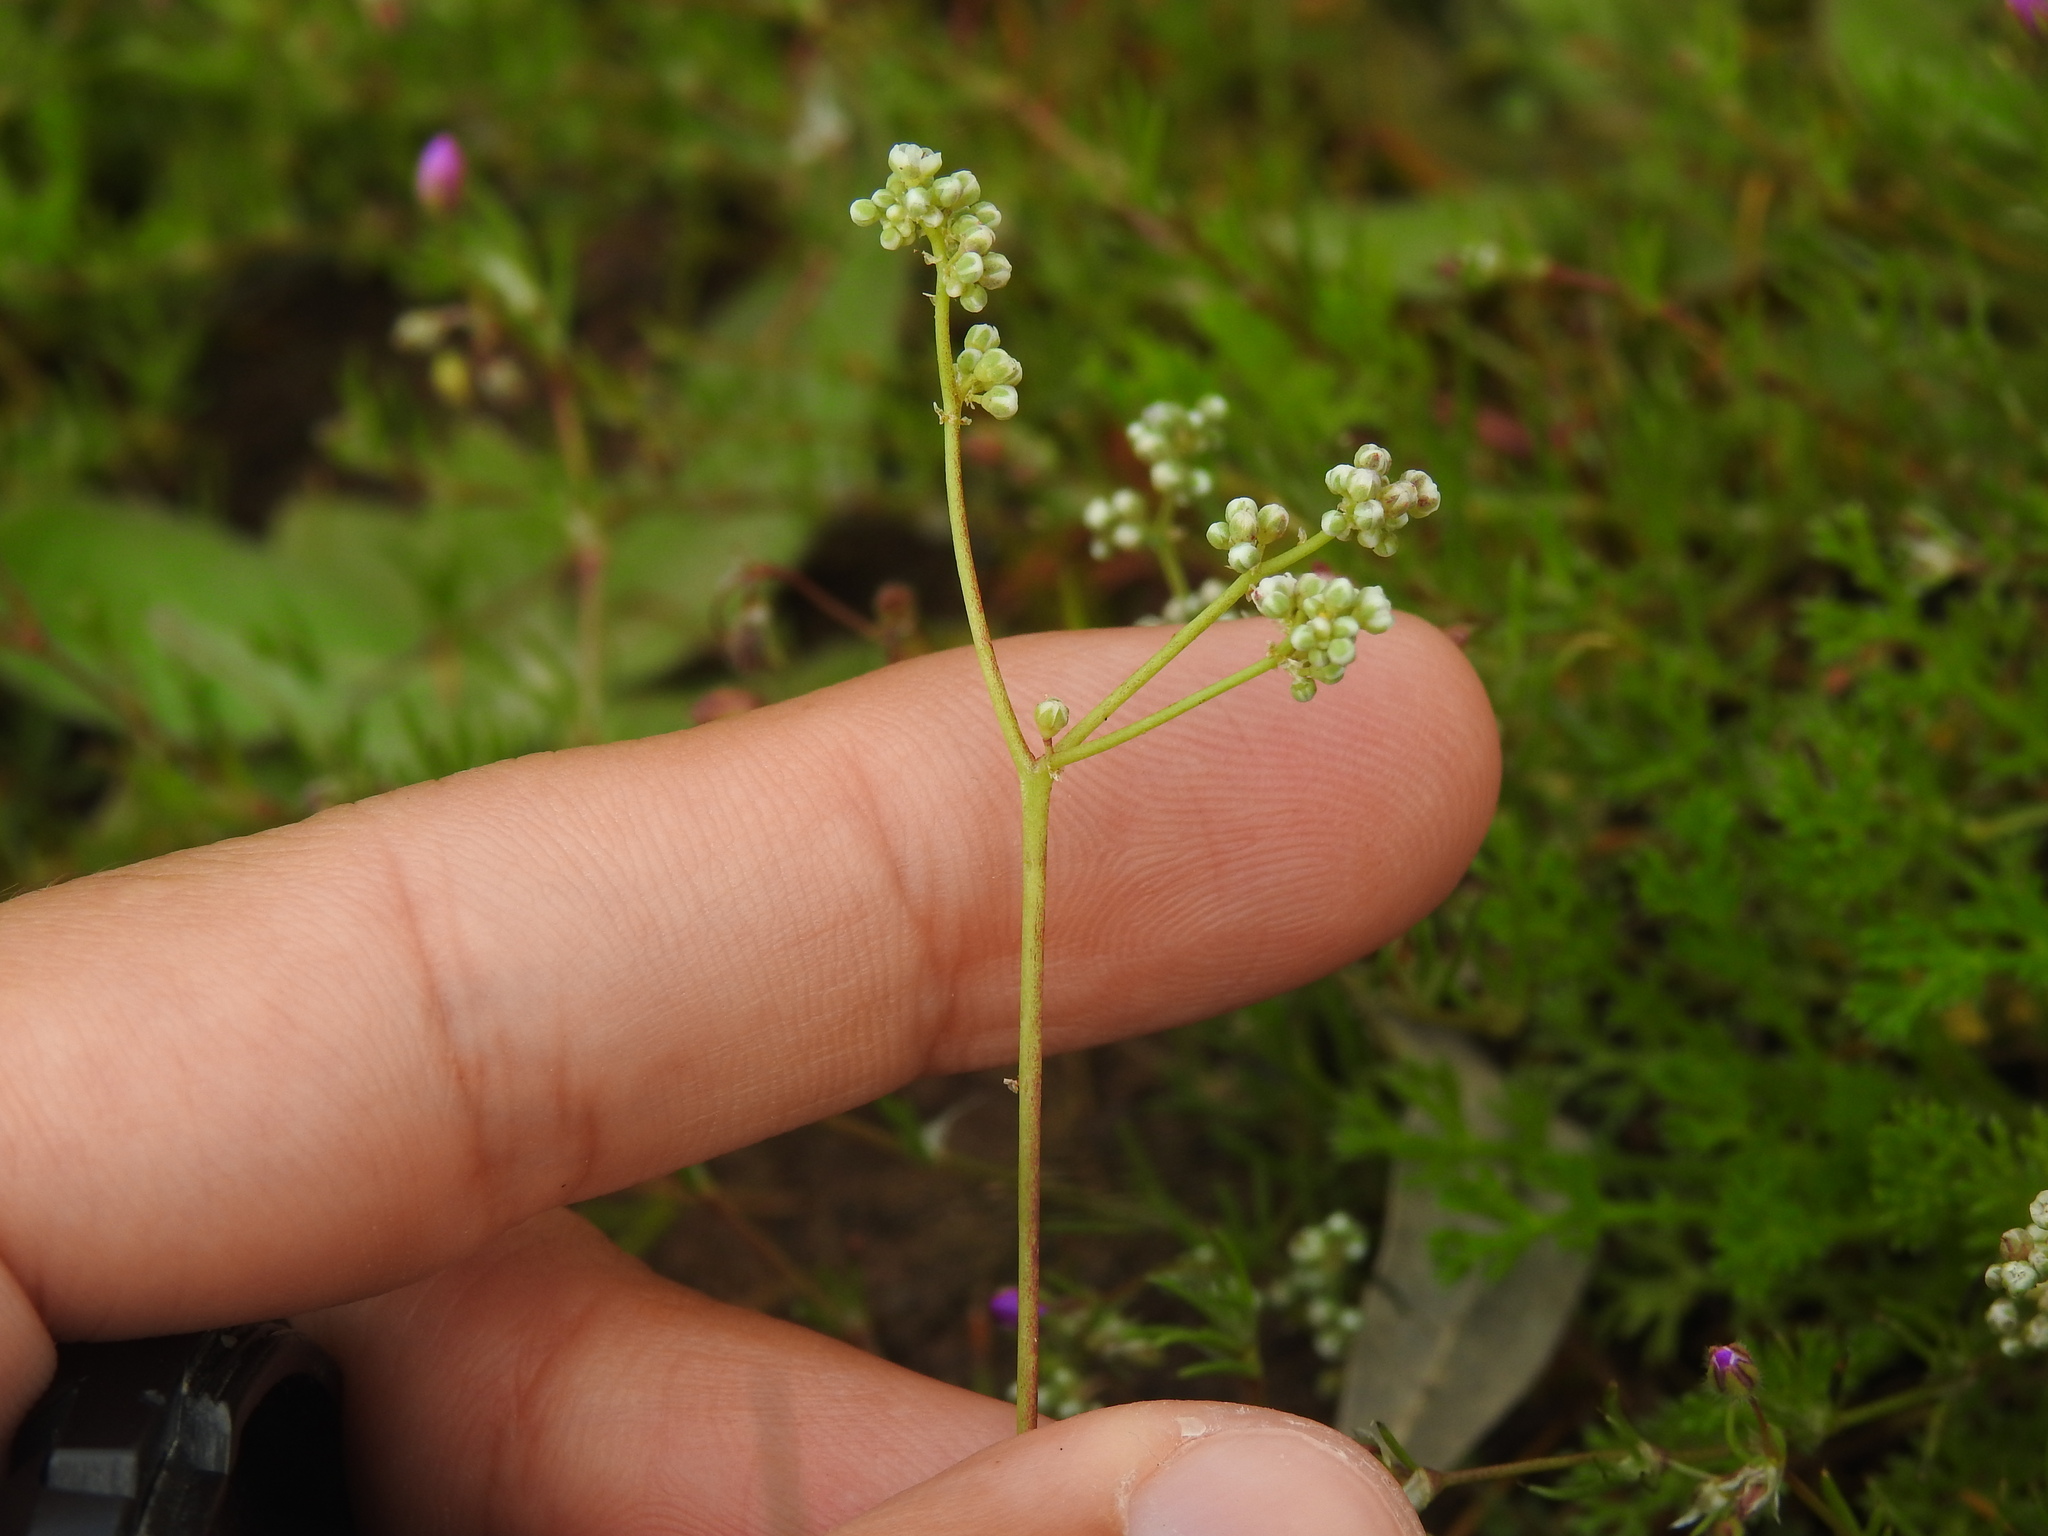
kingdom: Plantae
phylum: Tracheophyta
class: Magnoliopsida
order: Caryophyllales
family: Caryophyllaceae
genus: Corrigiola
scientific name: Corrigiola telephiifolia
